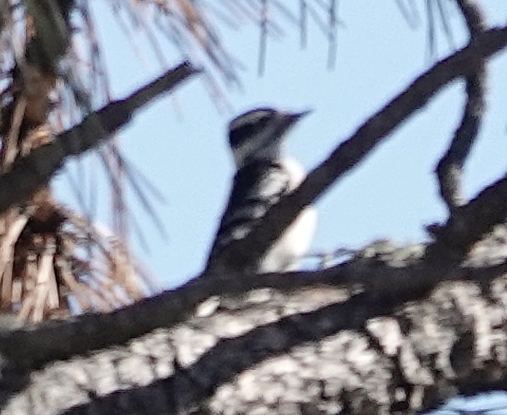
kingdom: Animalia
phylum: Chordata
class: Aves
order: Piciformes
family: Picidae
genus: Dryobates
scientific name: Dryobates pubescens
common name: Downy woodpecker
